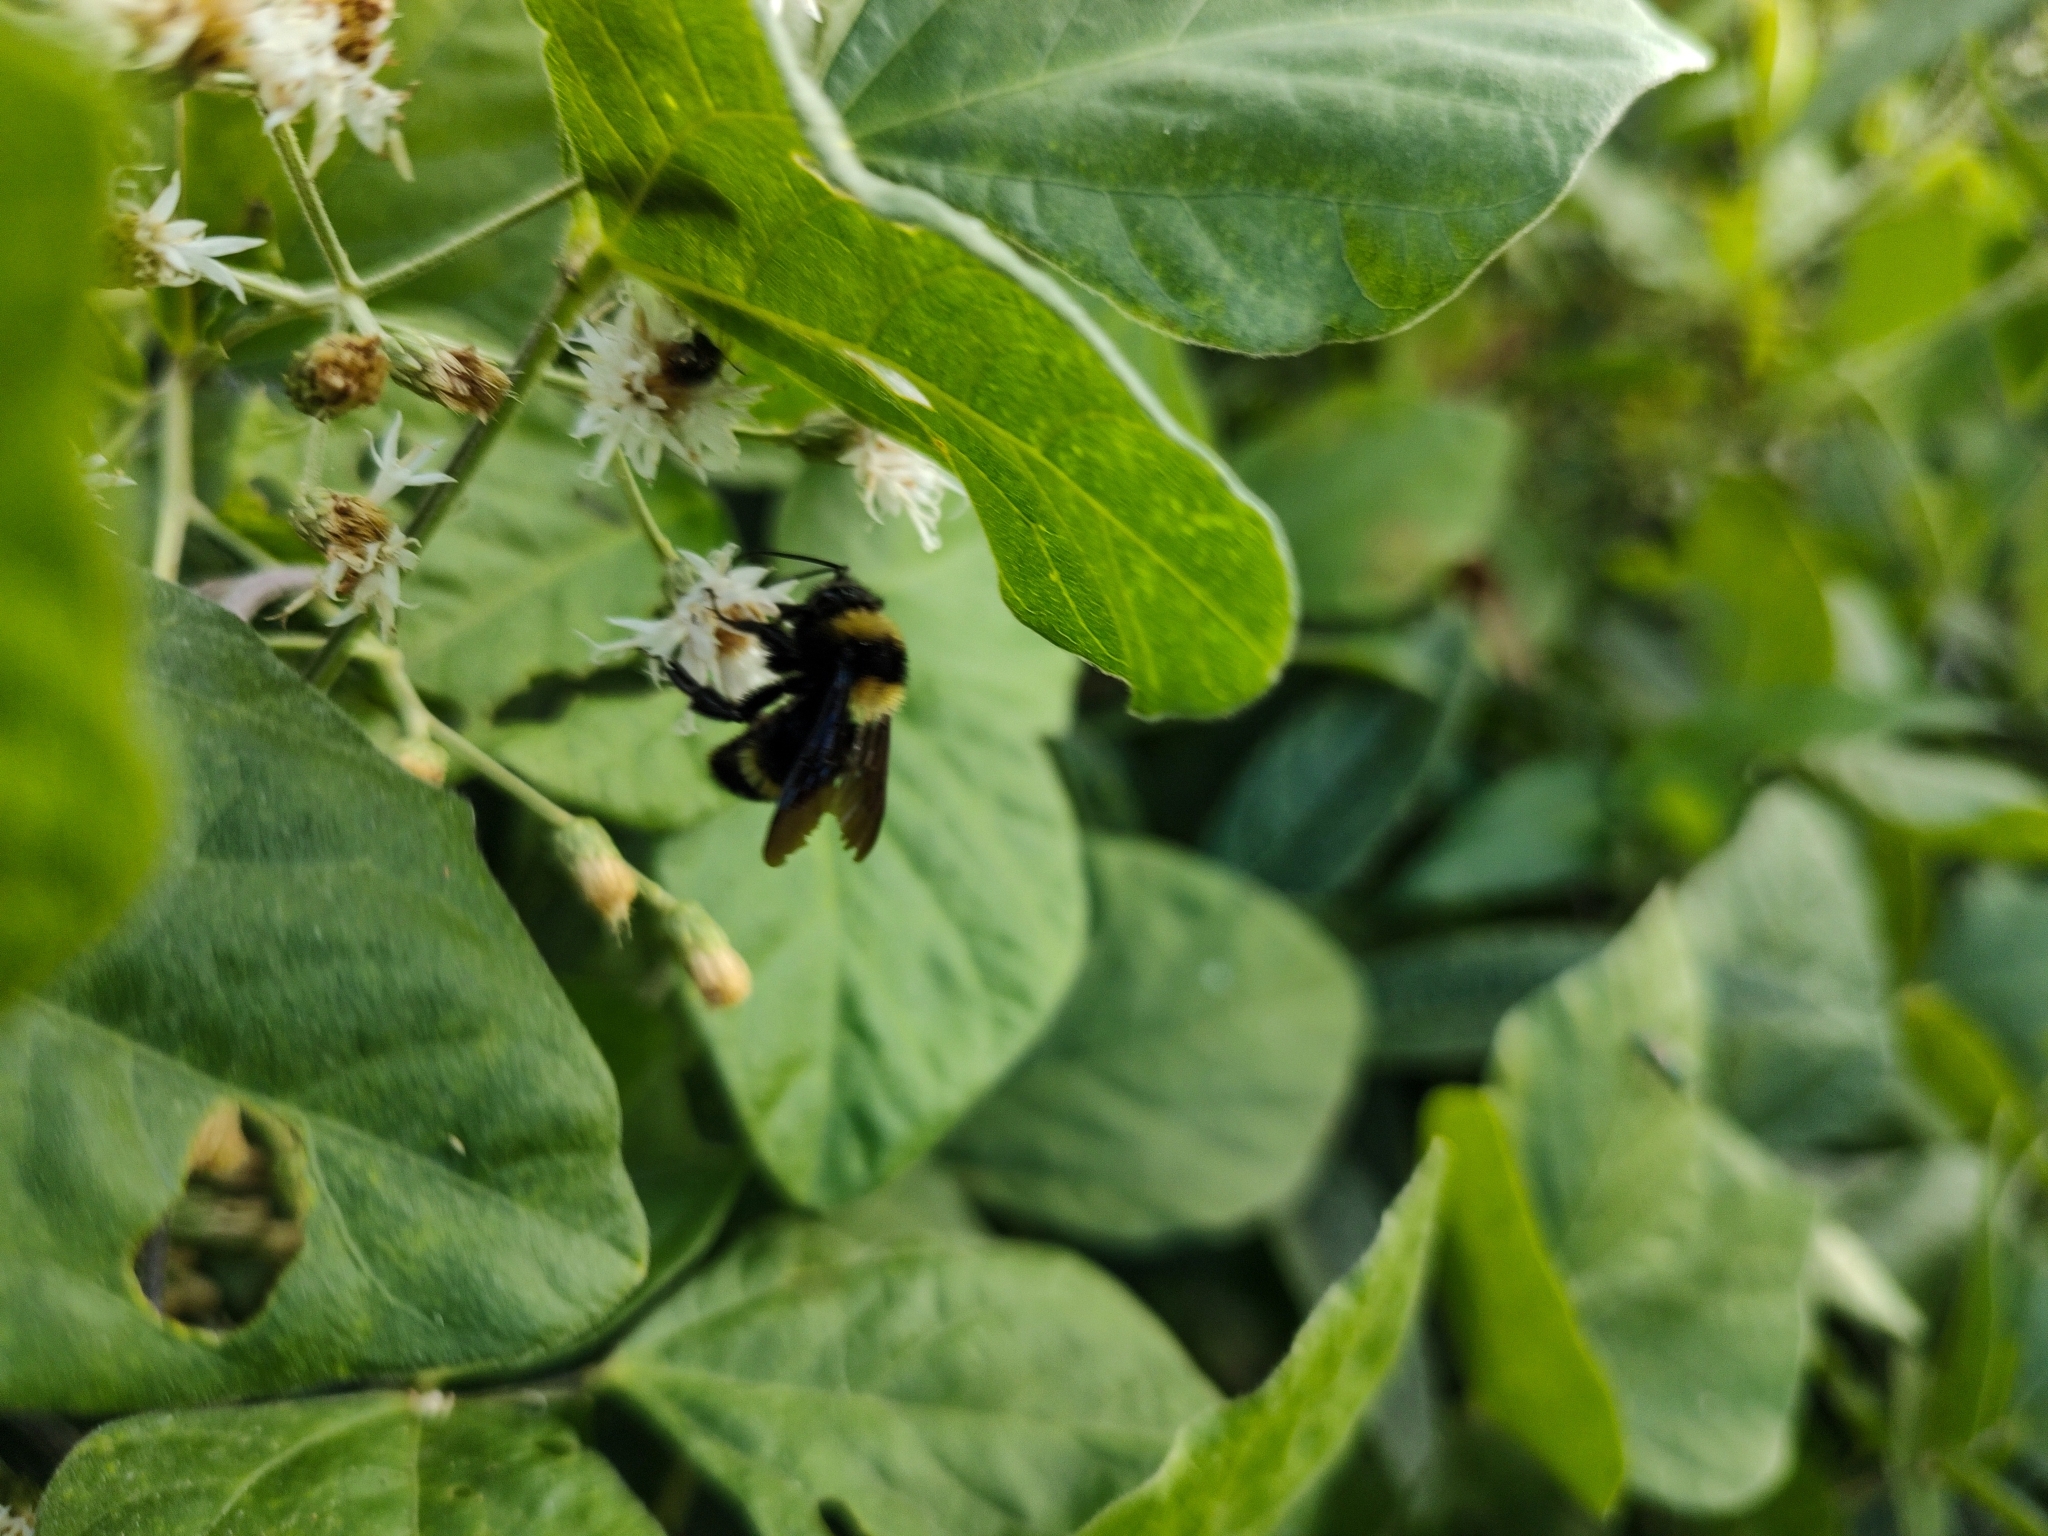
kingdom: Animalia
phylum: Arthropoda
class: Insecta
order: Hymenoptera
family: Apidae
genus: Bombus
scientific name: Bombus pauloensis
